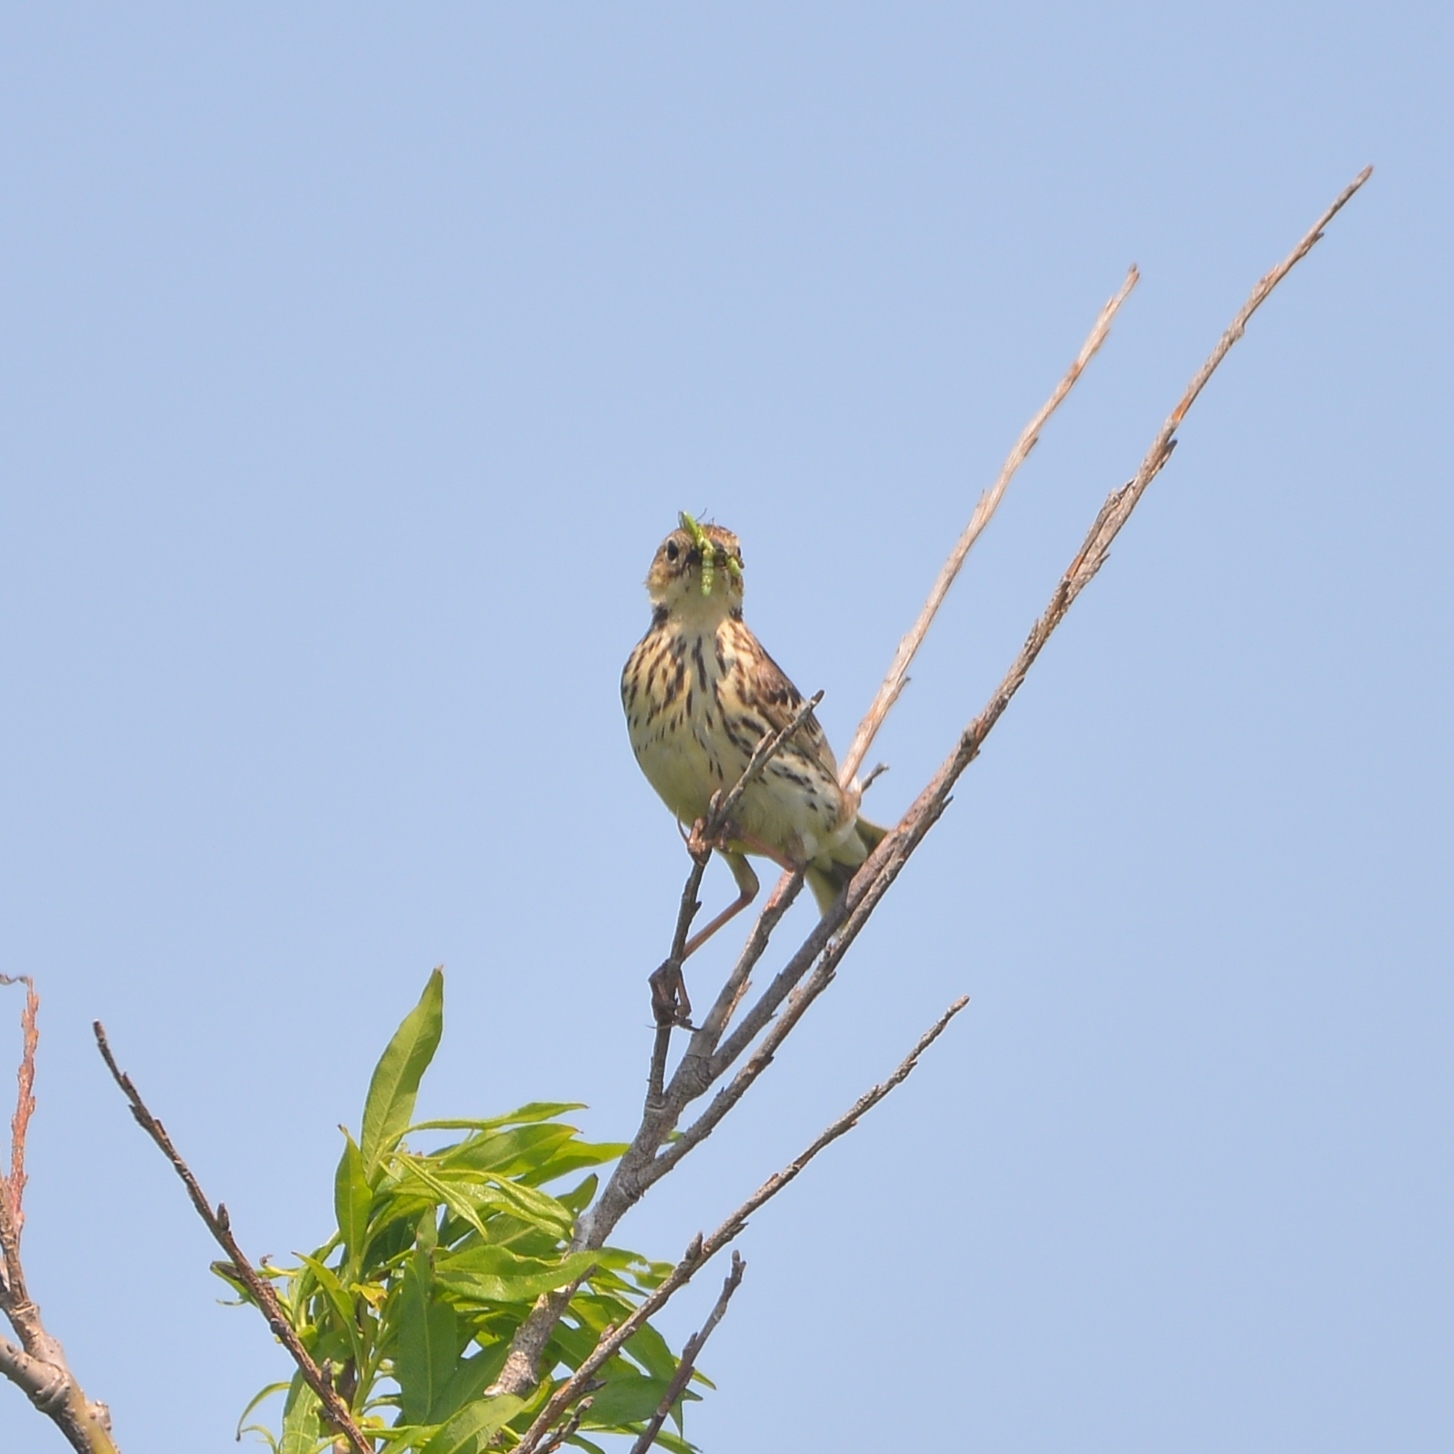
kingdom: Animalia
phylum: Chordata
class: Aves
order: Passeriformes
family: Motacillidae
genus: Anthus
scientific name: Anthus gustavi
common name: Pechora pipit
